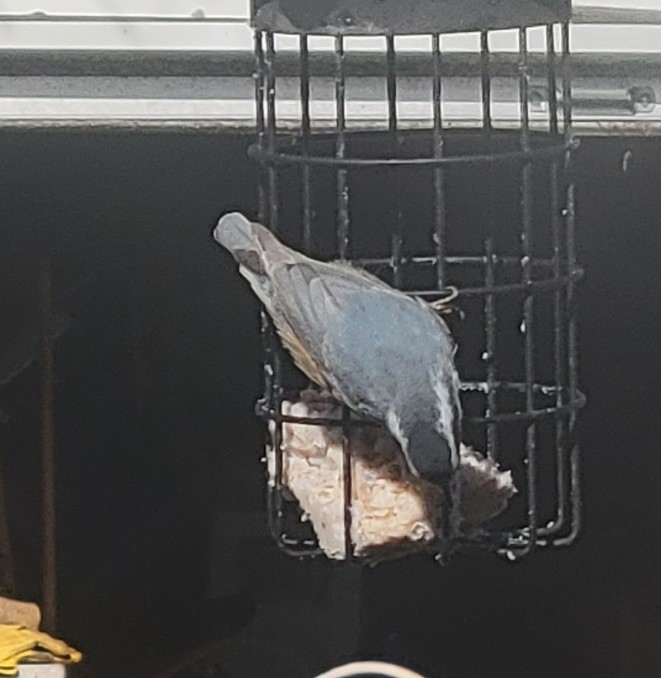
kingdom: Animalia
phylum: Chordata
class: Aves
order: Passeriformes
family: Sittidae
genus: Sitta
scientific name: Sitta canadensis
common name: Red-breasted nuthatch
